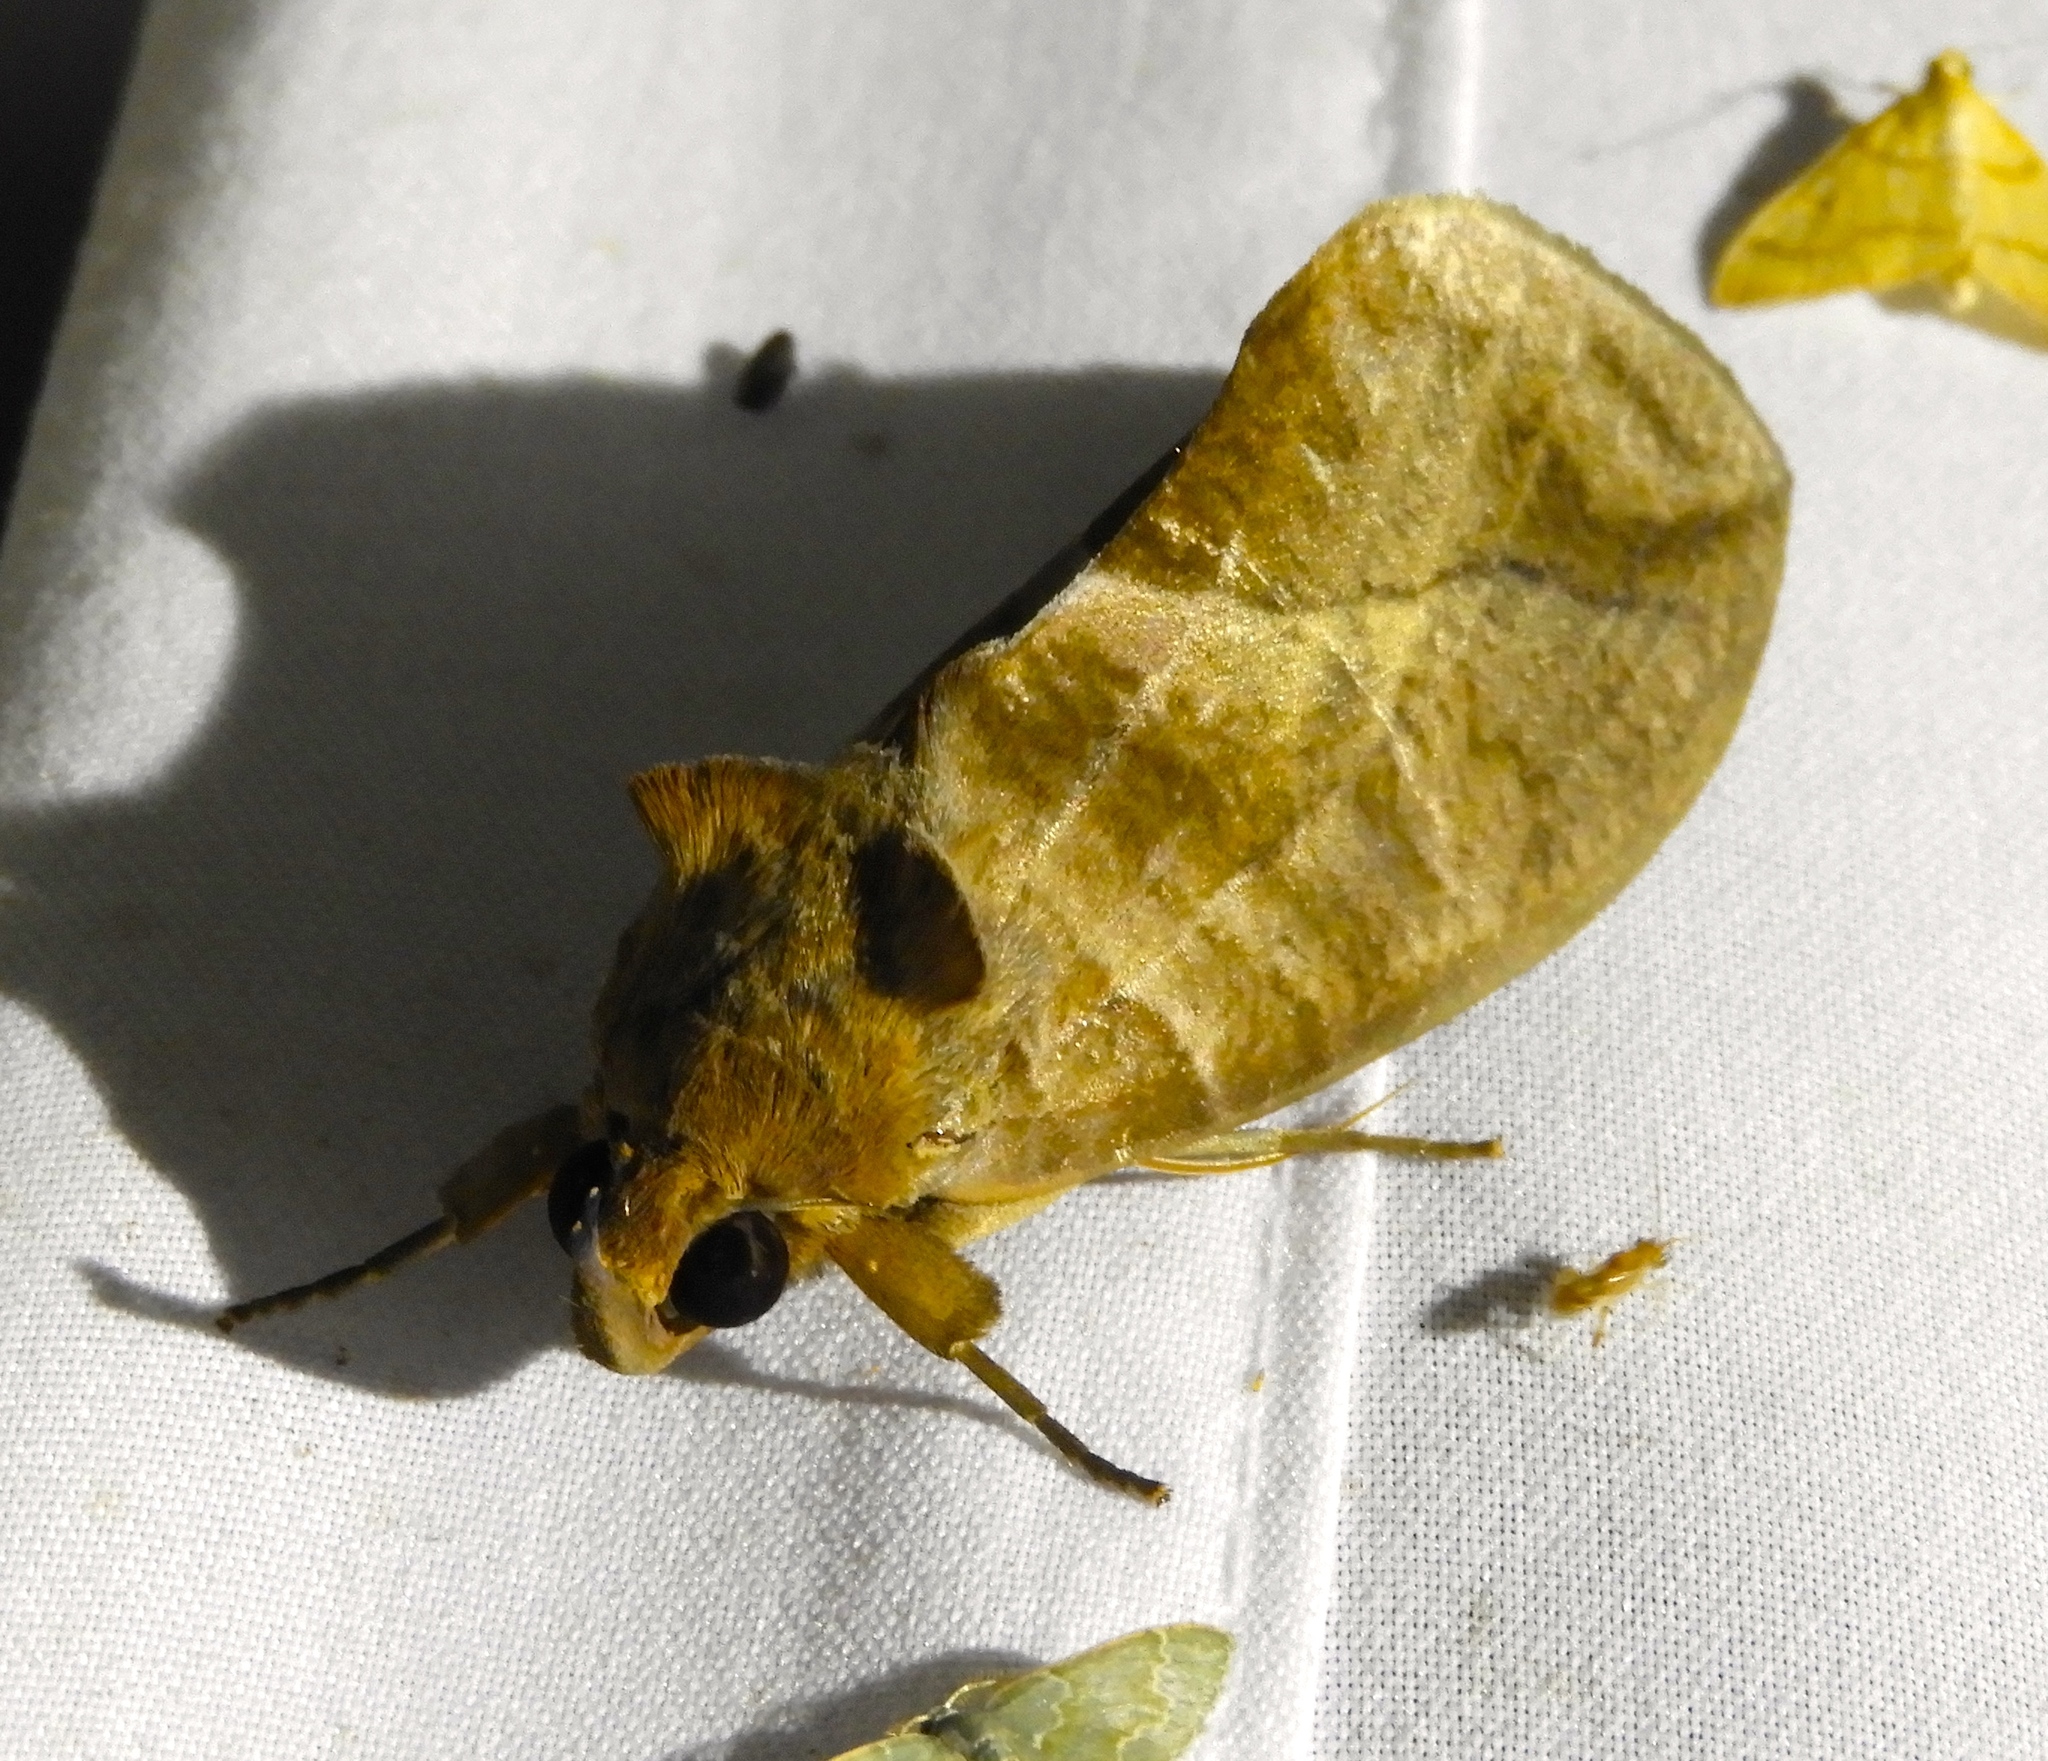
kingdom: Animalia
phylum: Arthropoda
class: Insecta
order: Lepidoptera
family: Erebidae
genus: Eudocima
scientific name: Eudocima serpentifera
